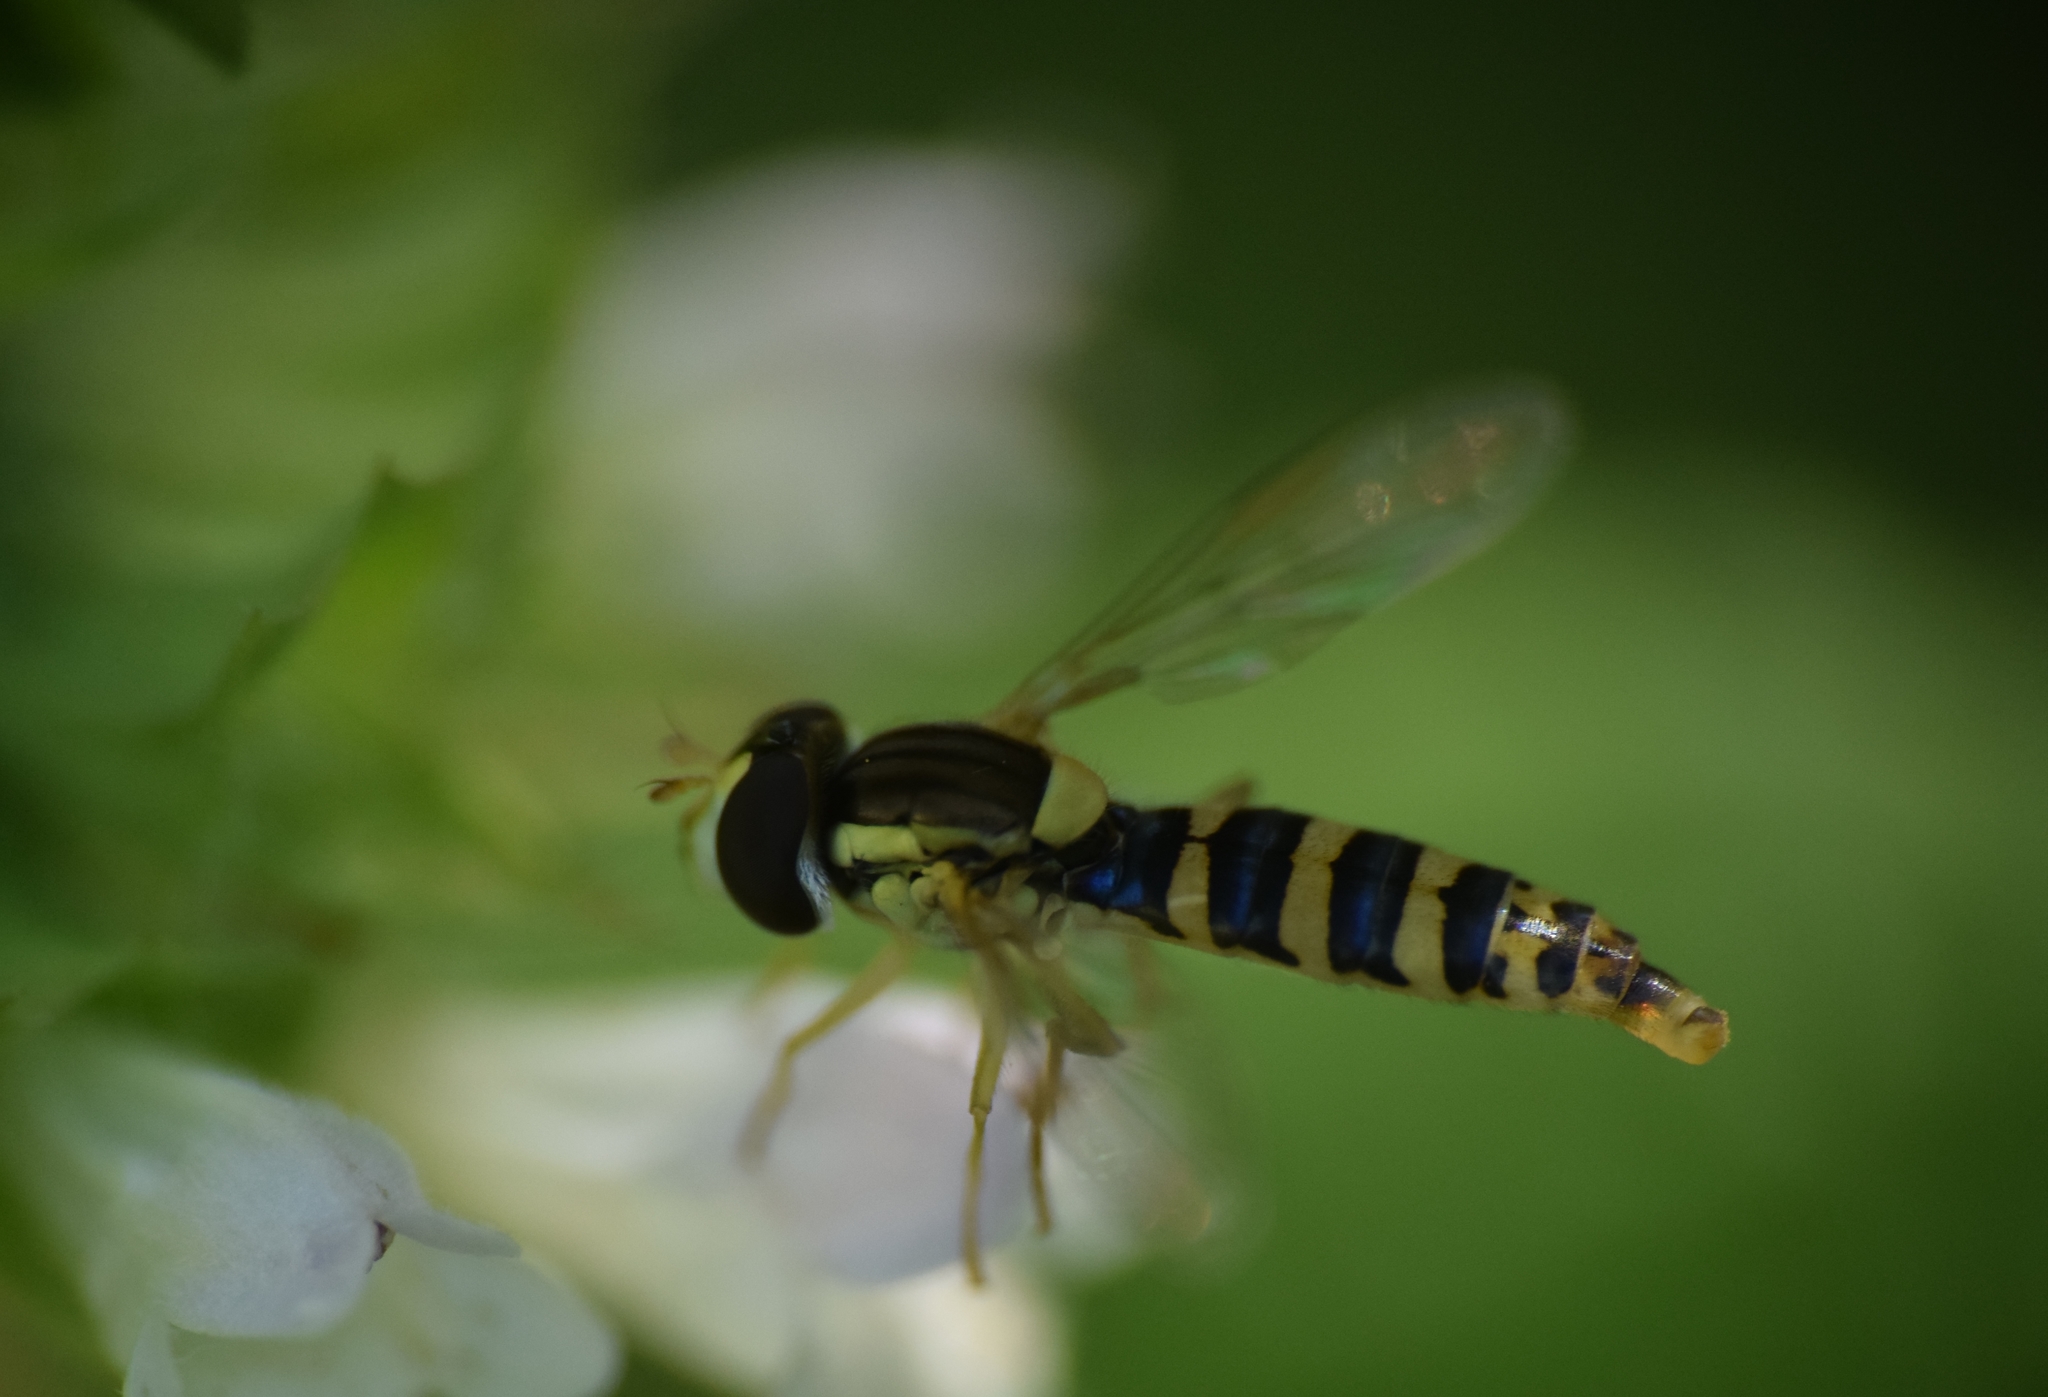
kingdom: Animalia
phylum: Arthropoda
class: Insecta
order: Diptera
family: Syrphidae
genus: Sphaerophoria
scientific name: Sphaerophoria
